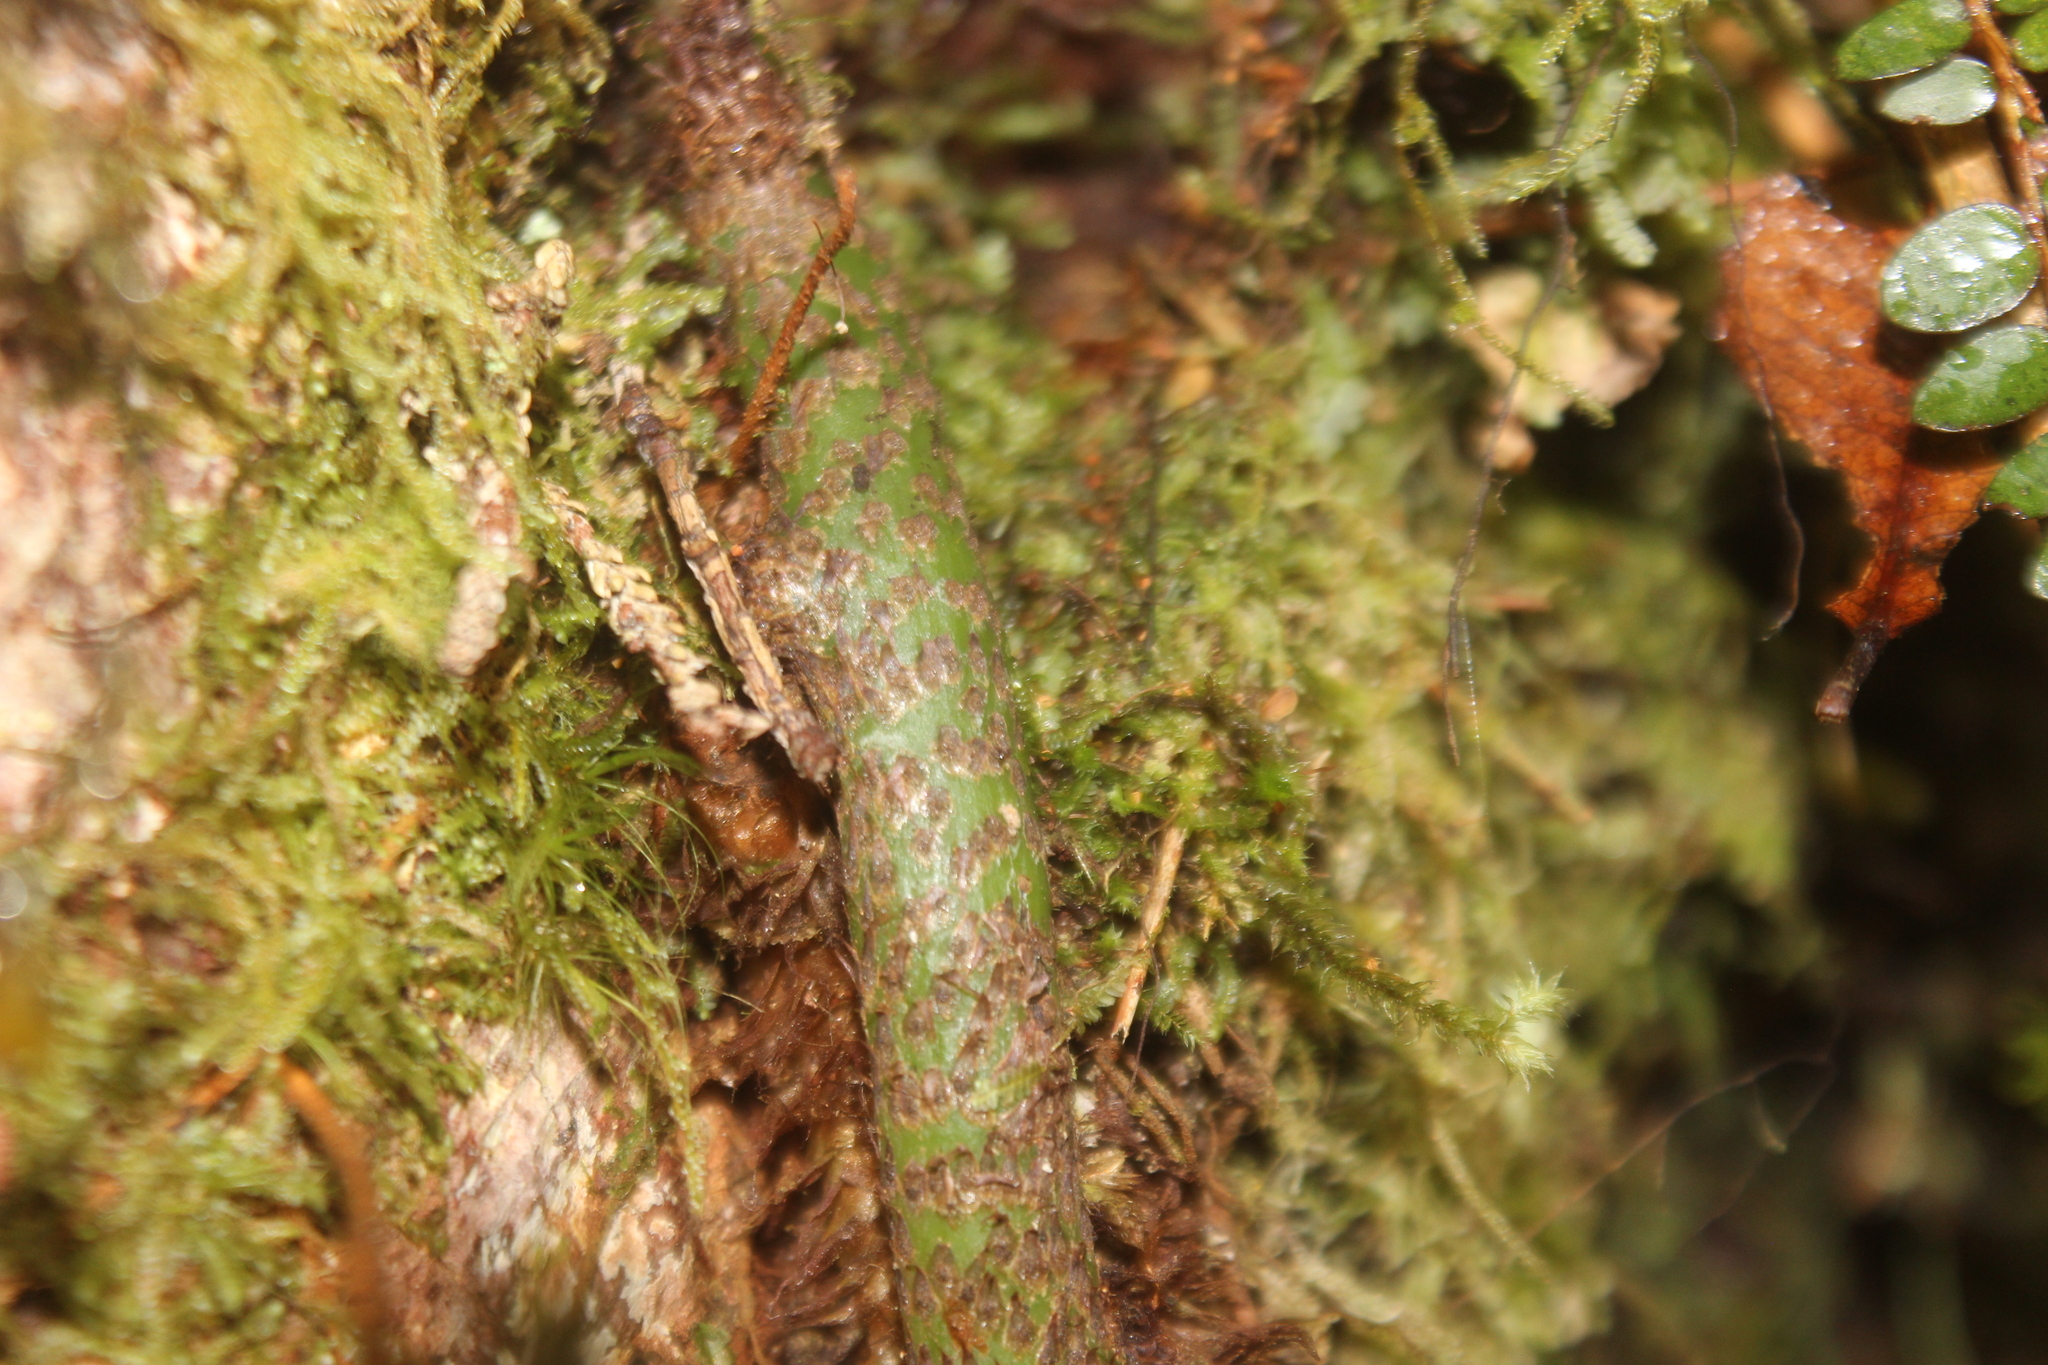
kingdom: Plantae
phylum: Tracheophyta
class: Polypodiopsida
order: Polypodiales
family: Polypodiaceae
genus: Lecanopteris
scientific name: Lecanopteris pustulata
